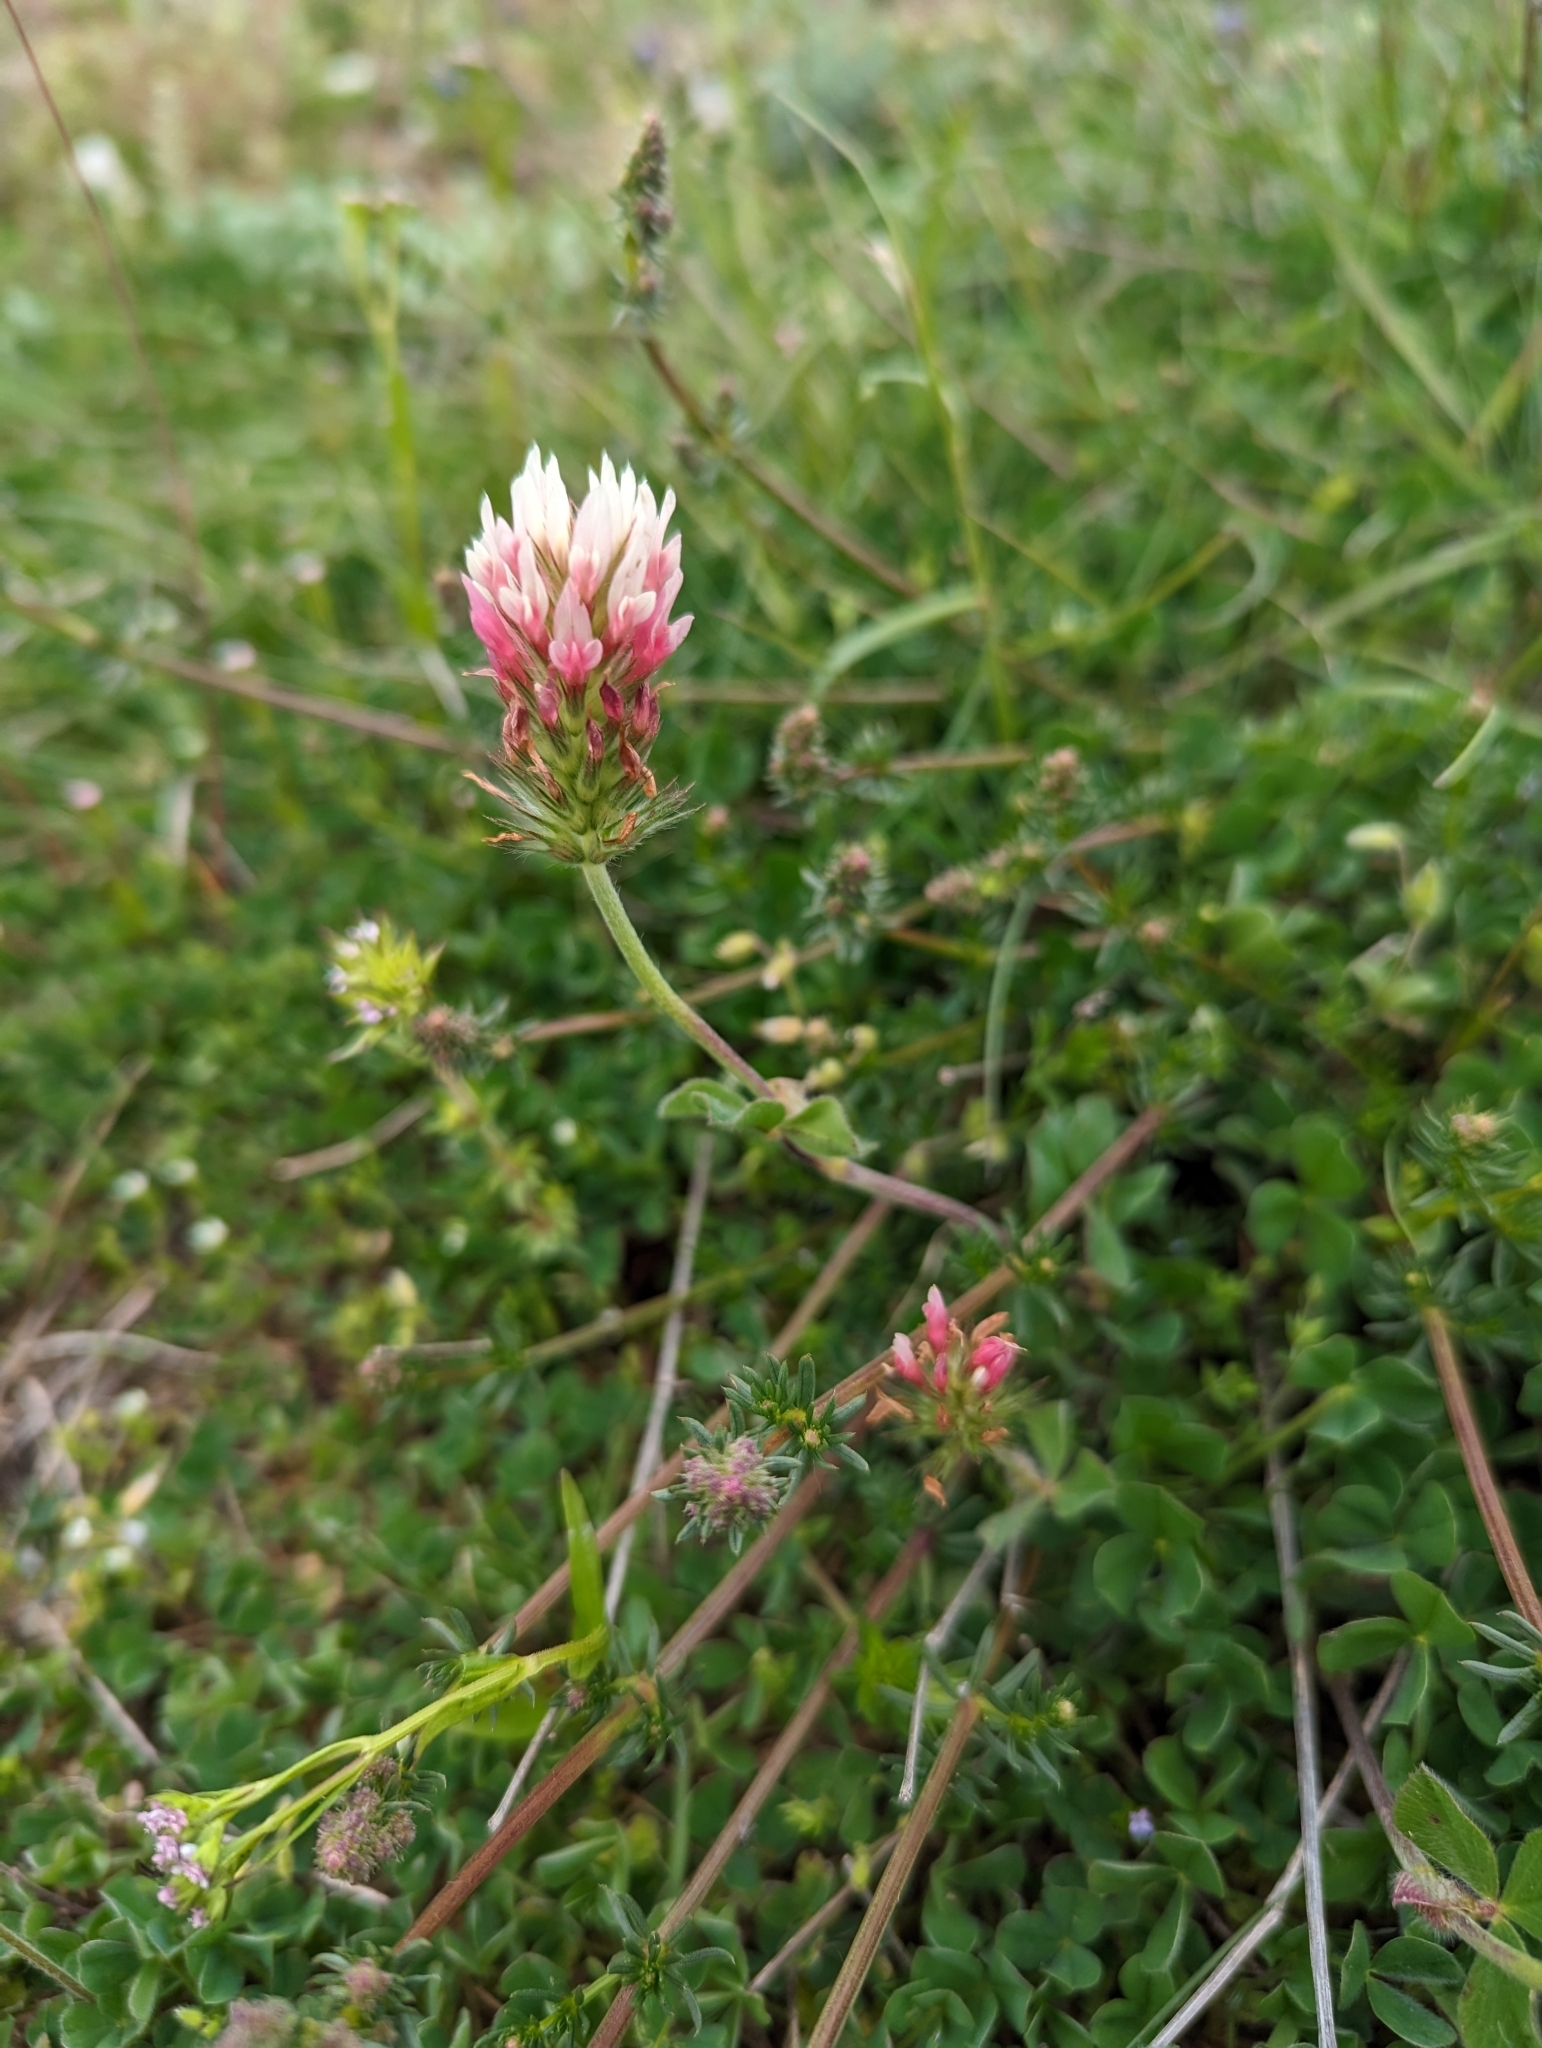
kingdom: Plantae
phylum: Tracheophyta
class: Magnoliopsida
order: Fabales
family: Fabaceae
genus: Trifolium
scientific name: Trifolium incarnatum
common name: Crimson clover
